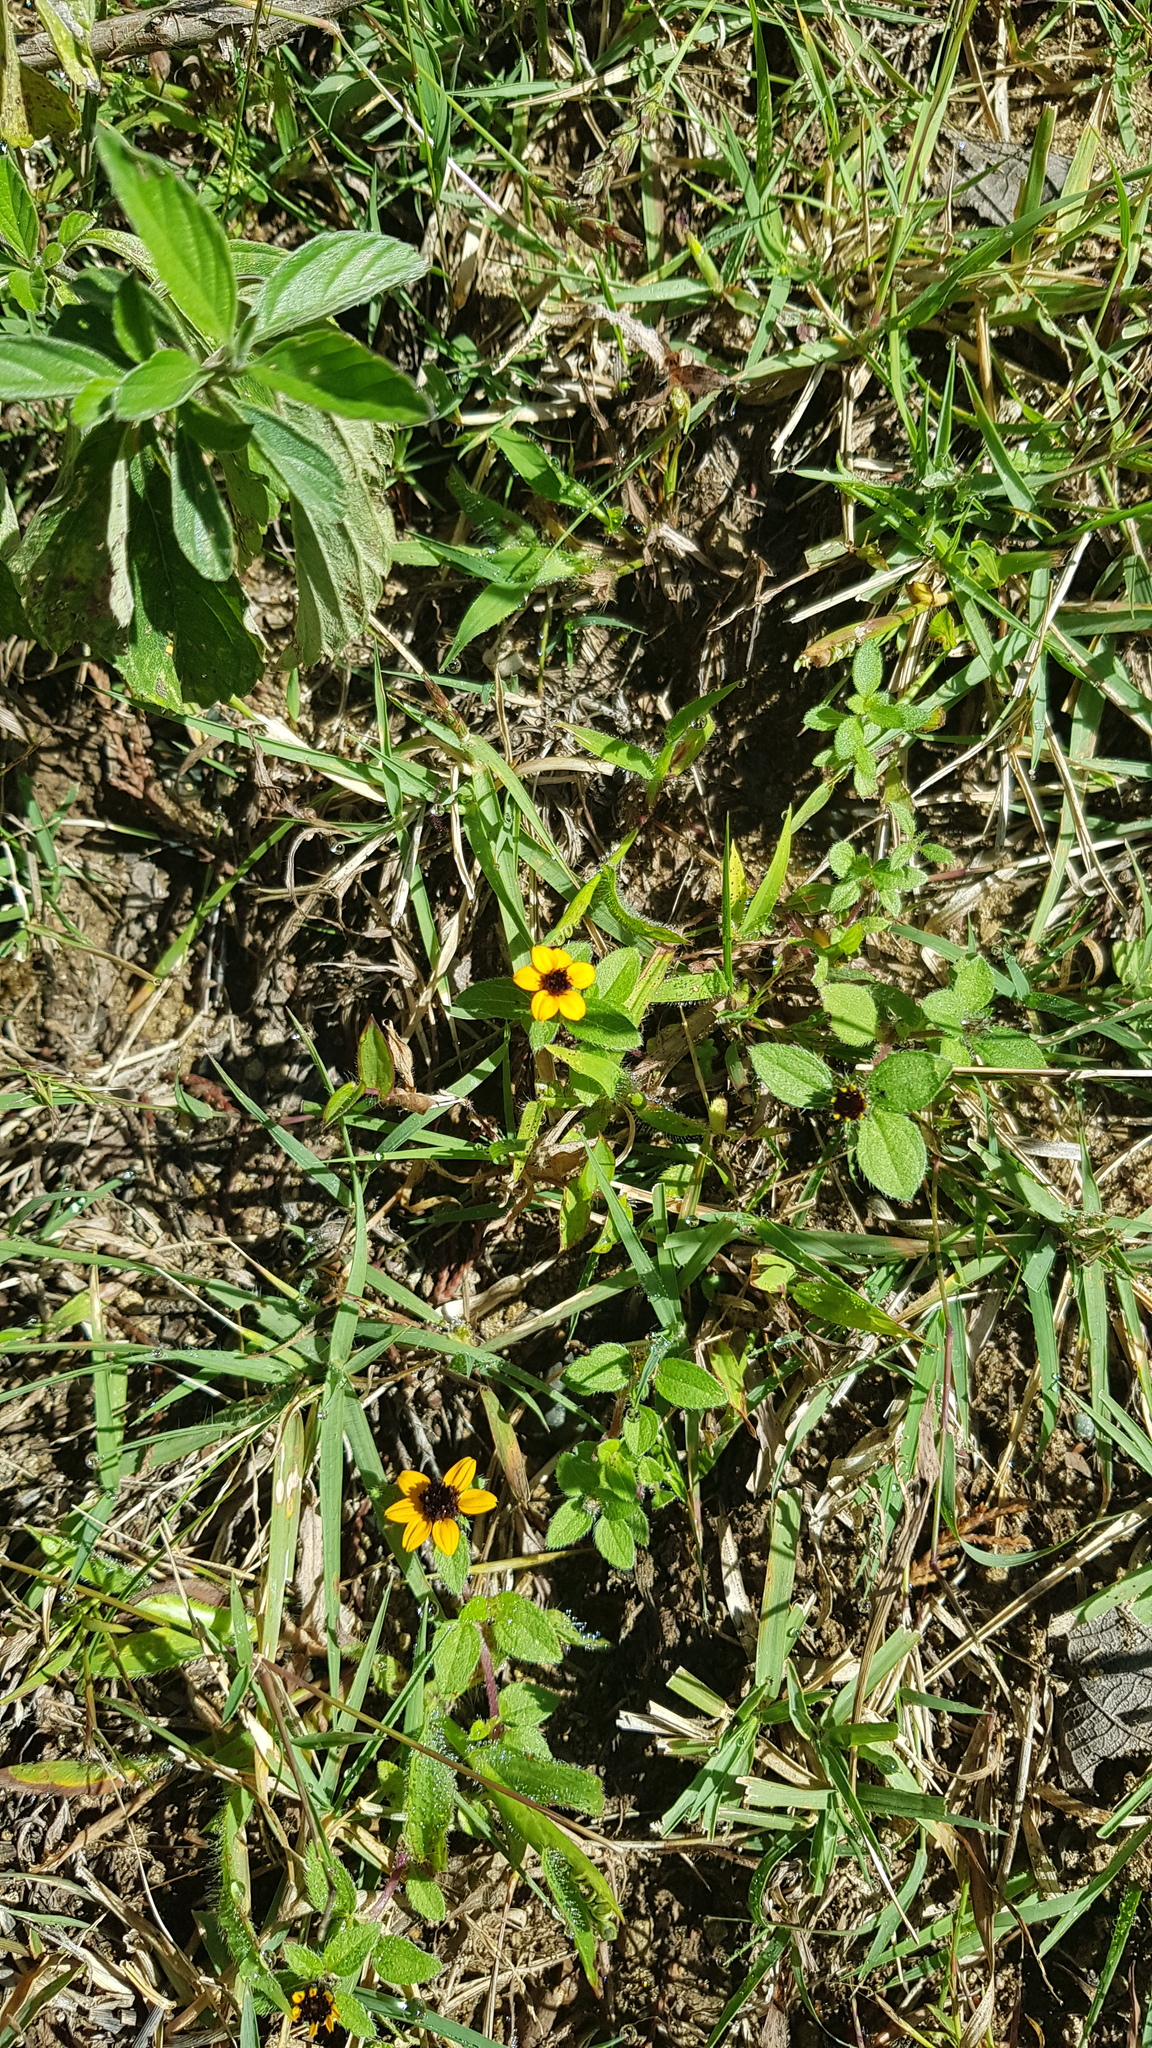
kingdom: Plantae
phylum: Tracheophyta
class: Magnoliopsida
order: Asterales
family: Asteraceae
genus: Sanvitalia
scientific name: Sanvitalia procumbens
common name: Mexican creeping zinnia
